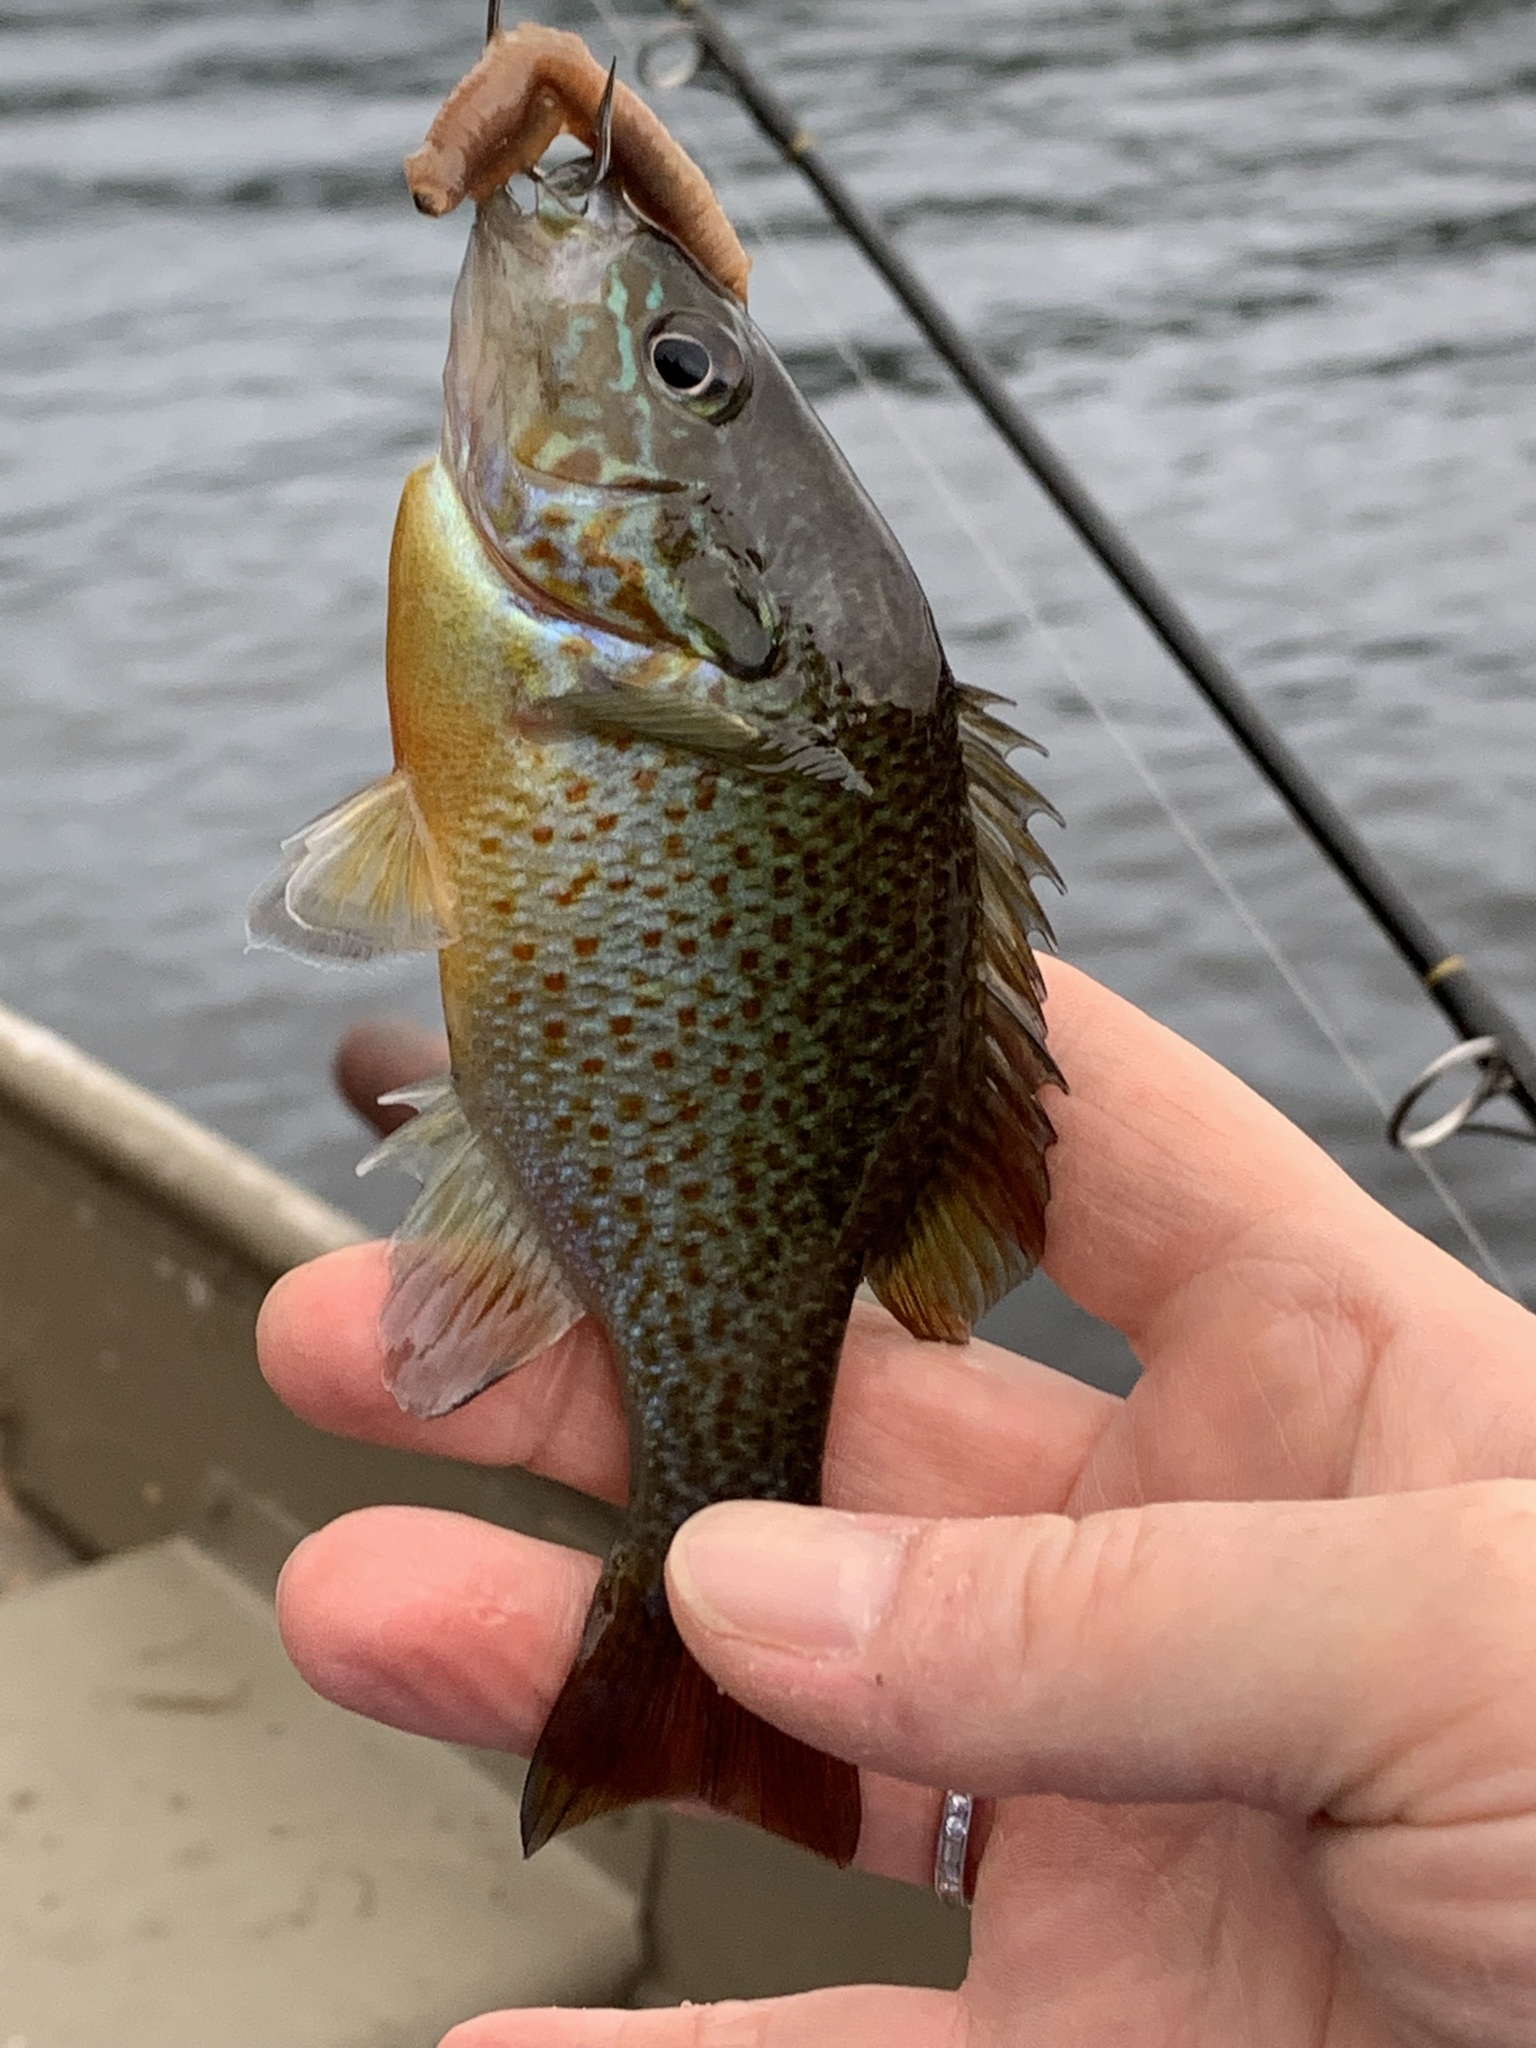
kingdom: Animalia
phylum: Chordata
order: Perciformes
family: Centrarchidae
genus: Lepomis
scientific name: Lepomis auritus
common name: Redbreast sunfish
